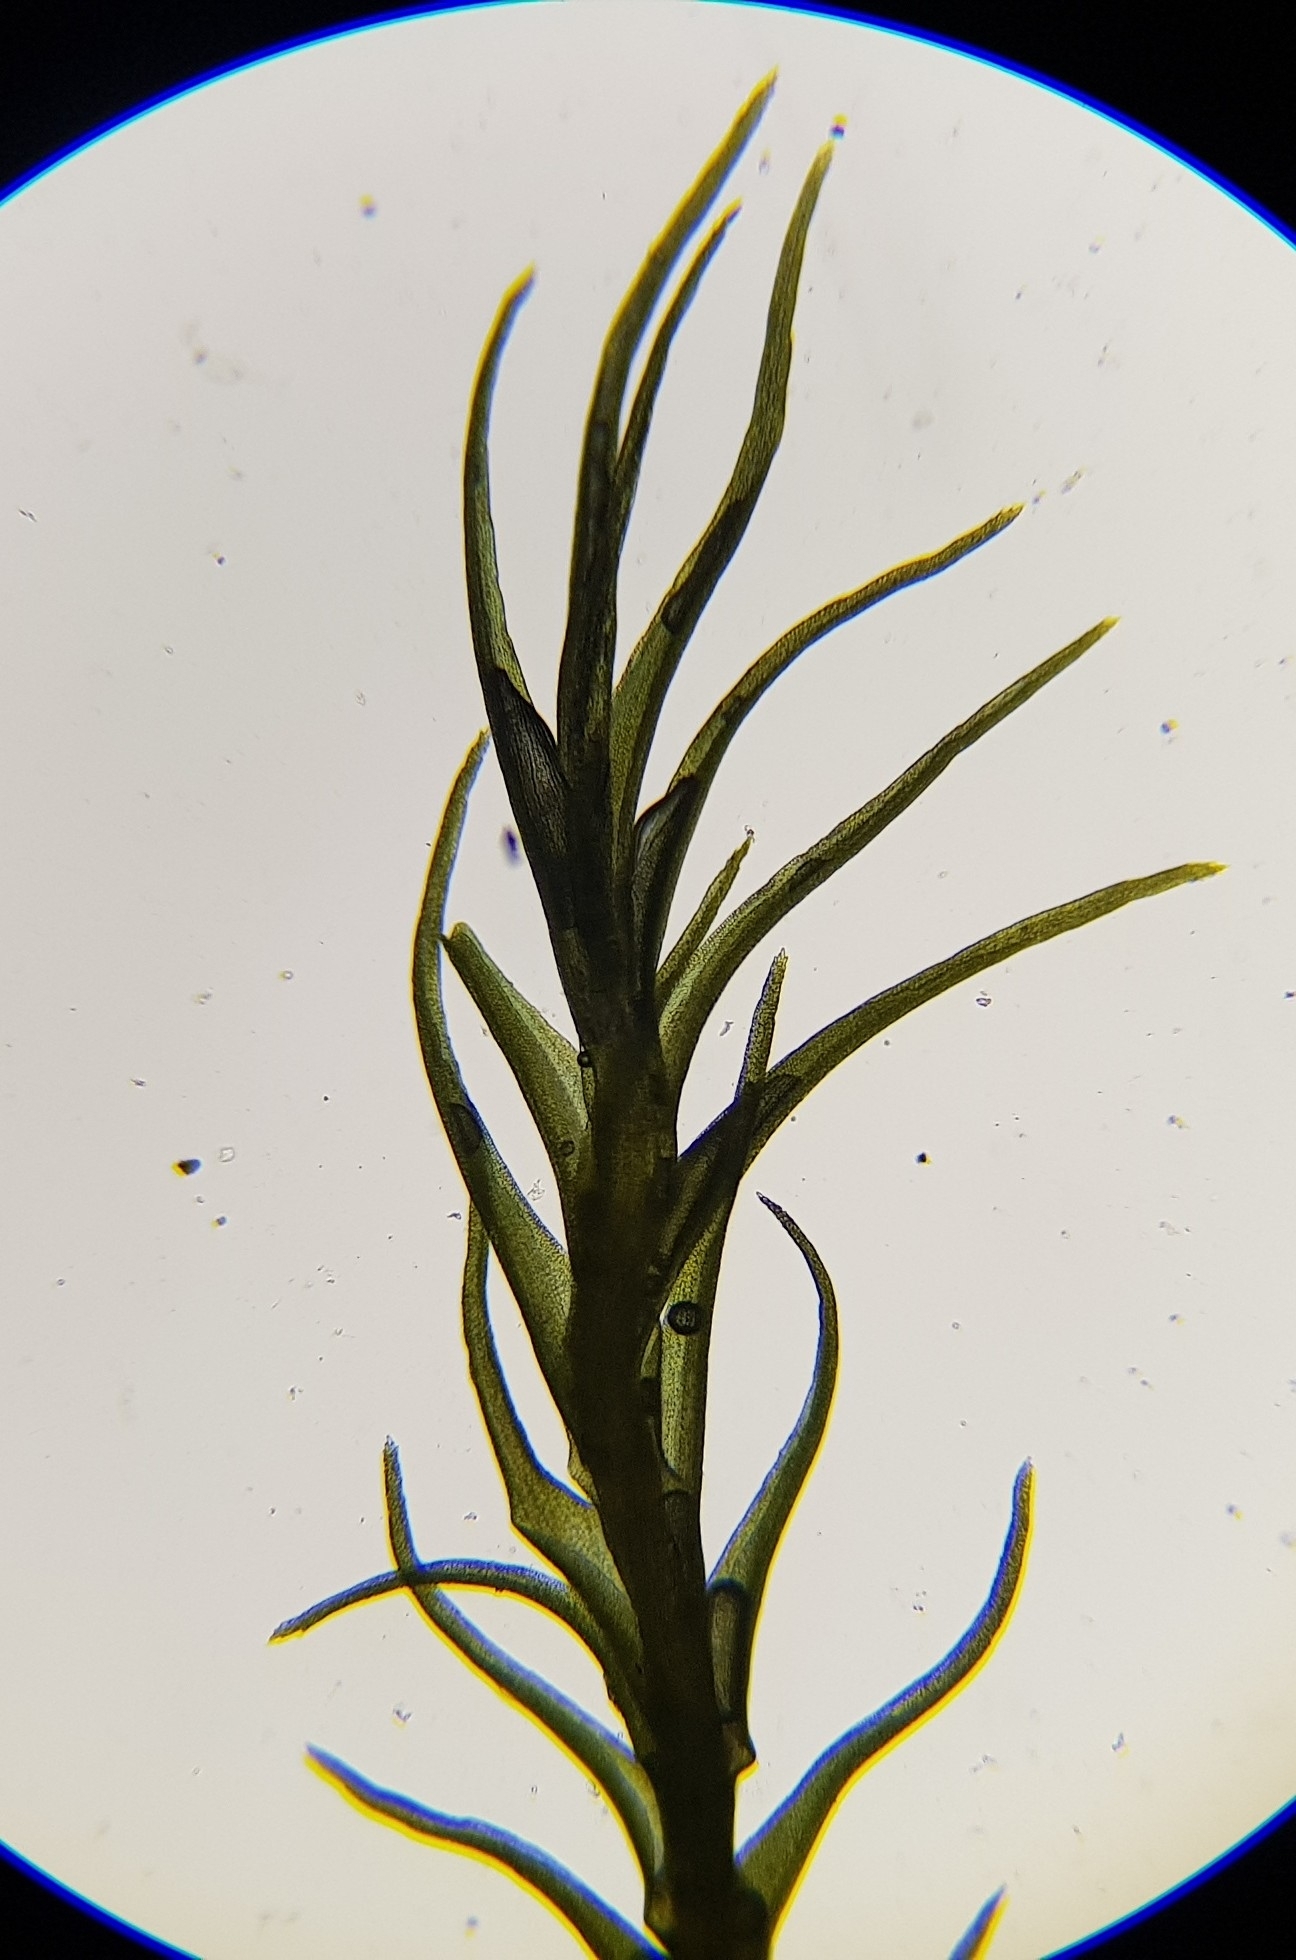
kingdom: Plantae
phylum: Bryophyta
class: Bryopsida
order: Scouleriales
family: Flexitrichaceae
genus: Flexitrichum
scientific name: Flexitrichum flexicaule
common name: Bendy ditrichum
